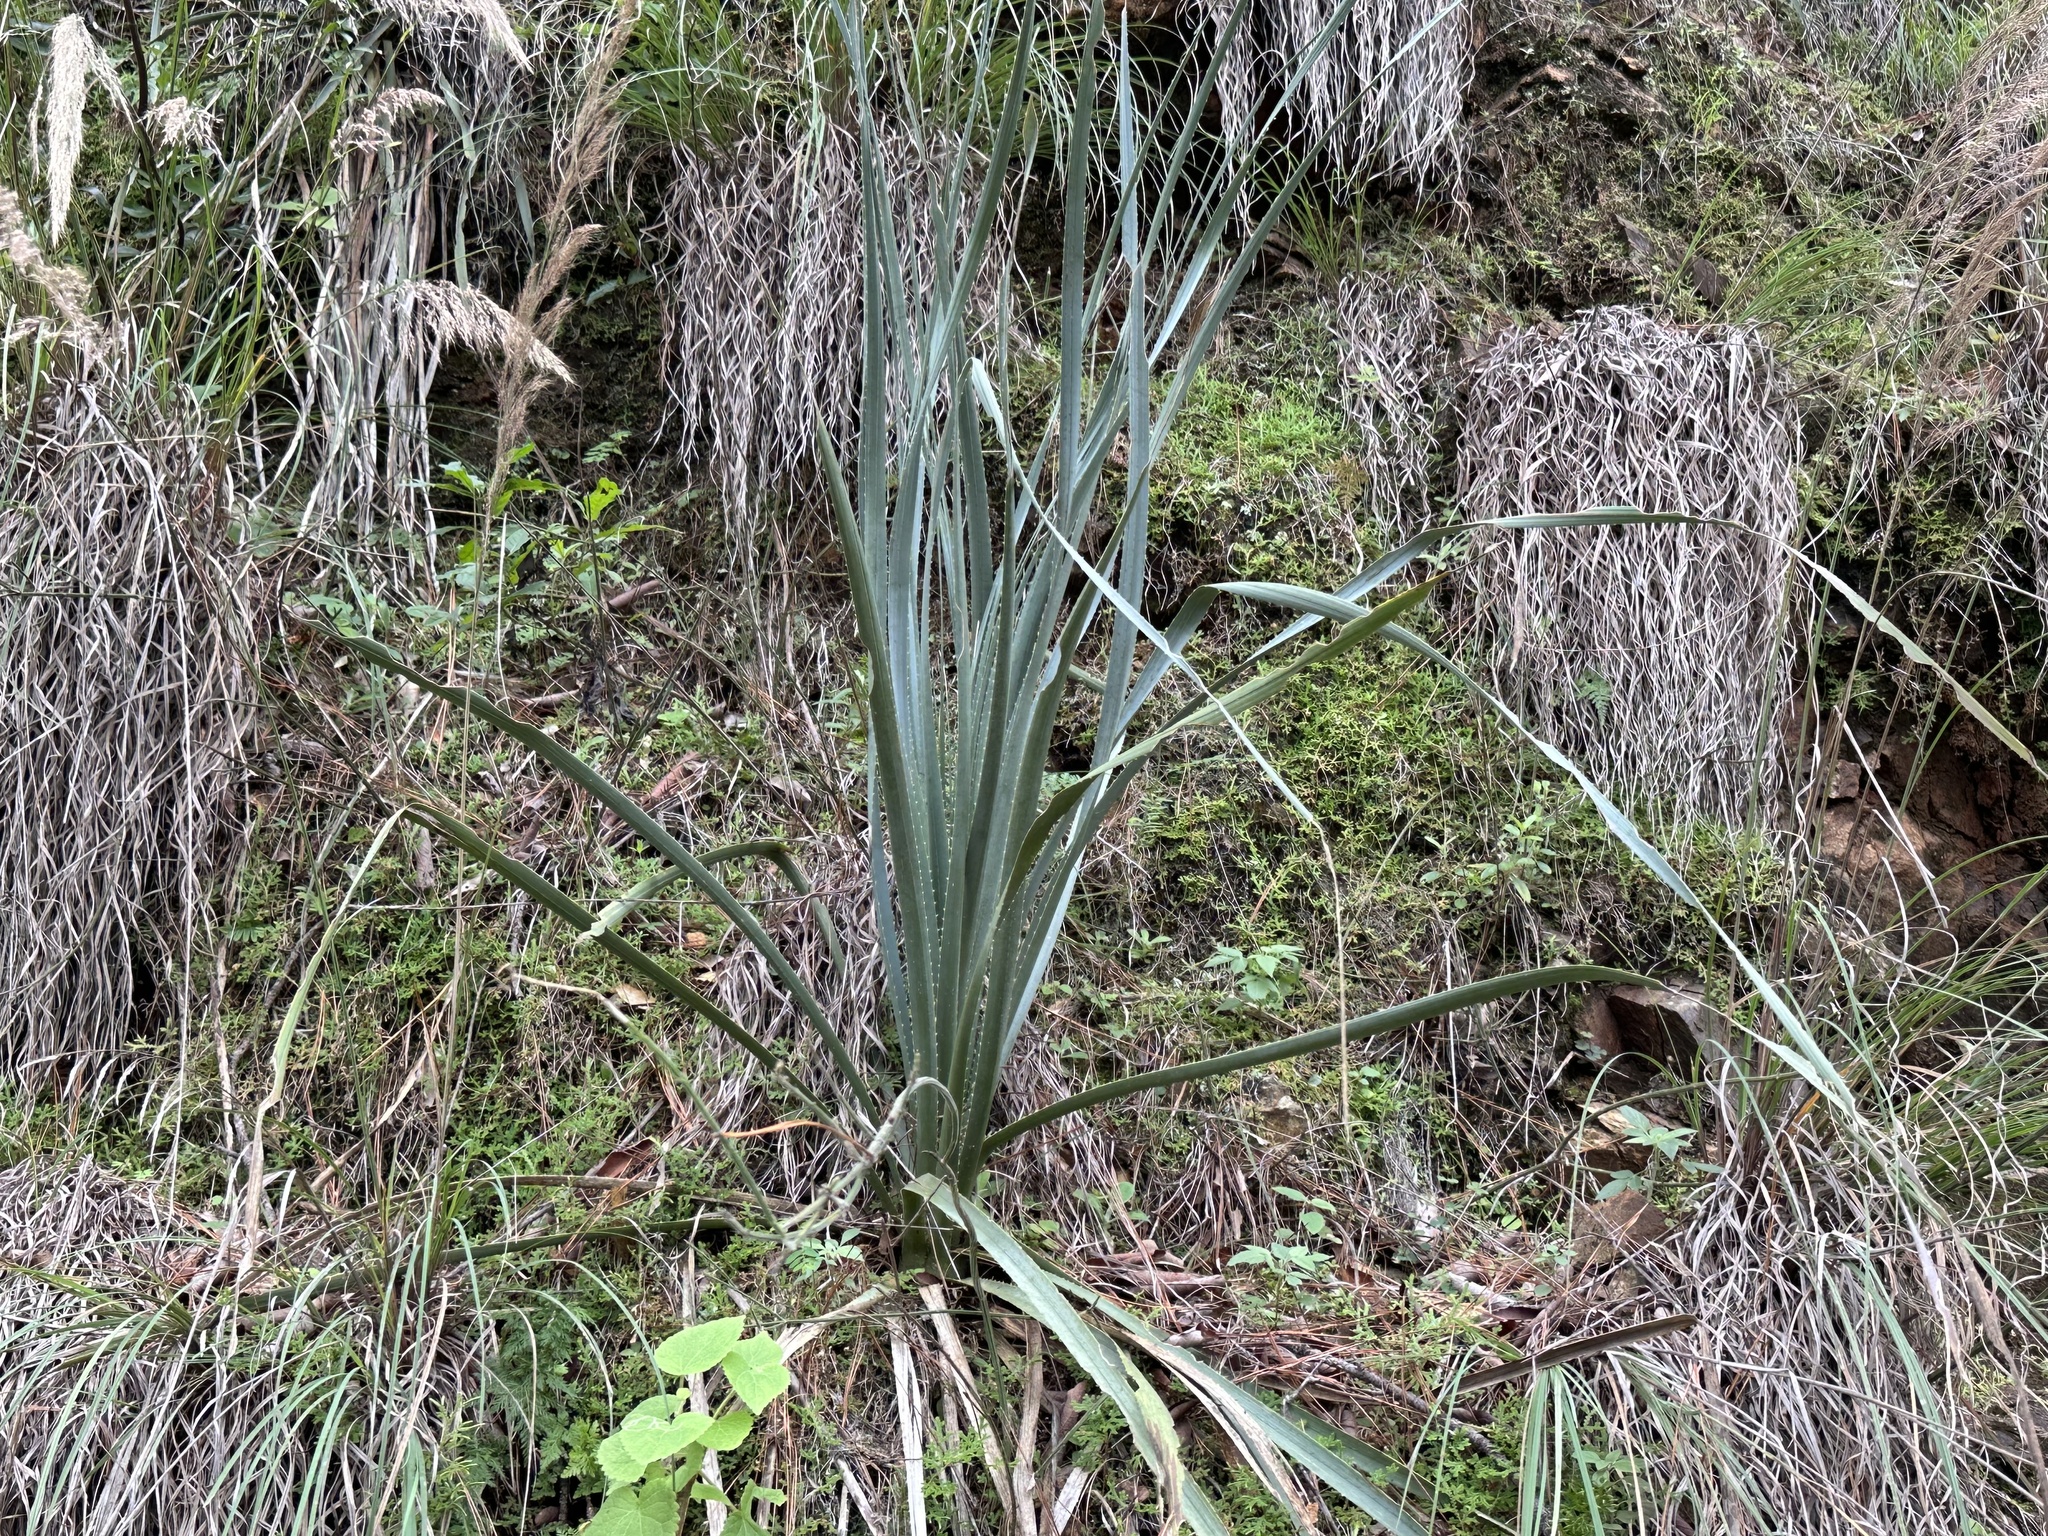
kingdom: Plantae
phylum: Tracheophyta
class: Liliopsida
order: Asparagales
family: Asparagaceae
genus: Dasylirion
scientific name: Dasylirion berlandieri
